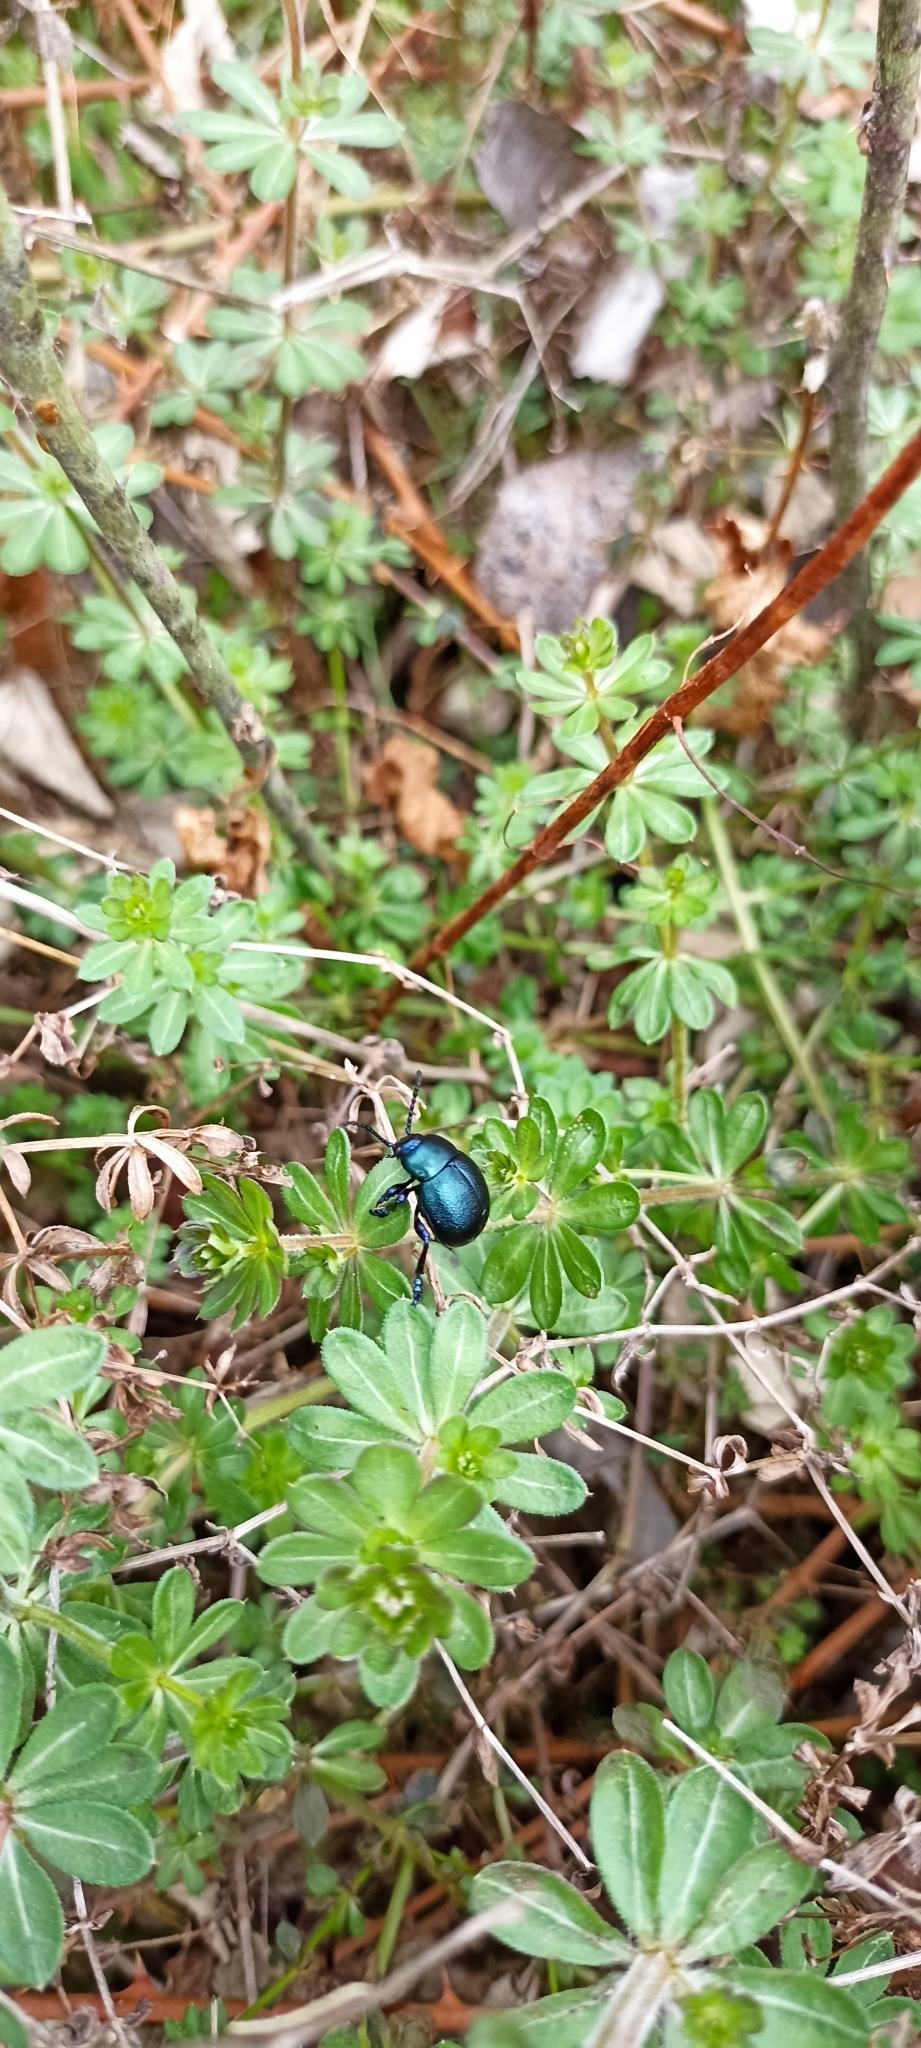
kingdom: Animalia
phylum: Arthropoda
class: Insecta
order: Coleoptera
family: Chrysomelidae
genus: Timarcha
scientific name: Timarcha goettingensis
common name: Small bloody-nosed beetle
